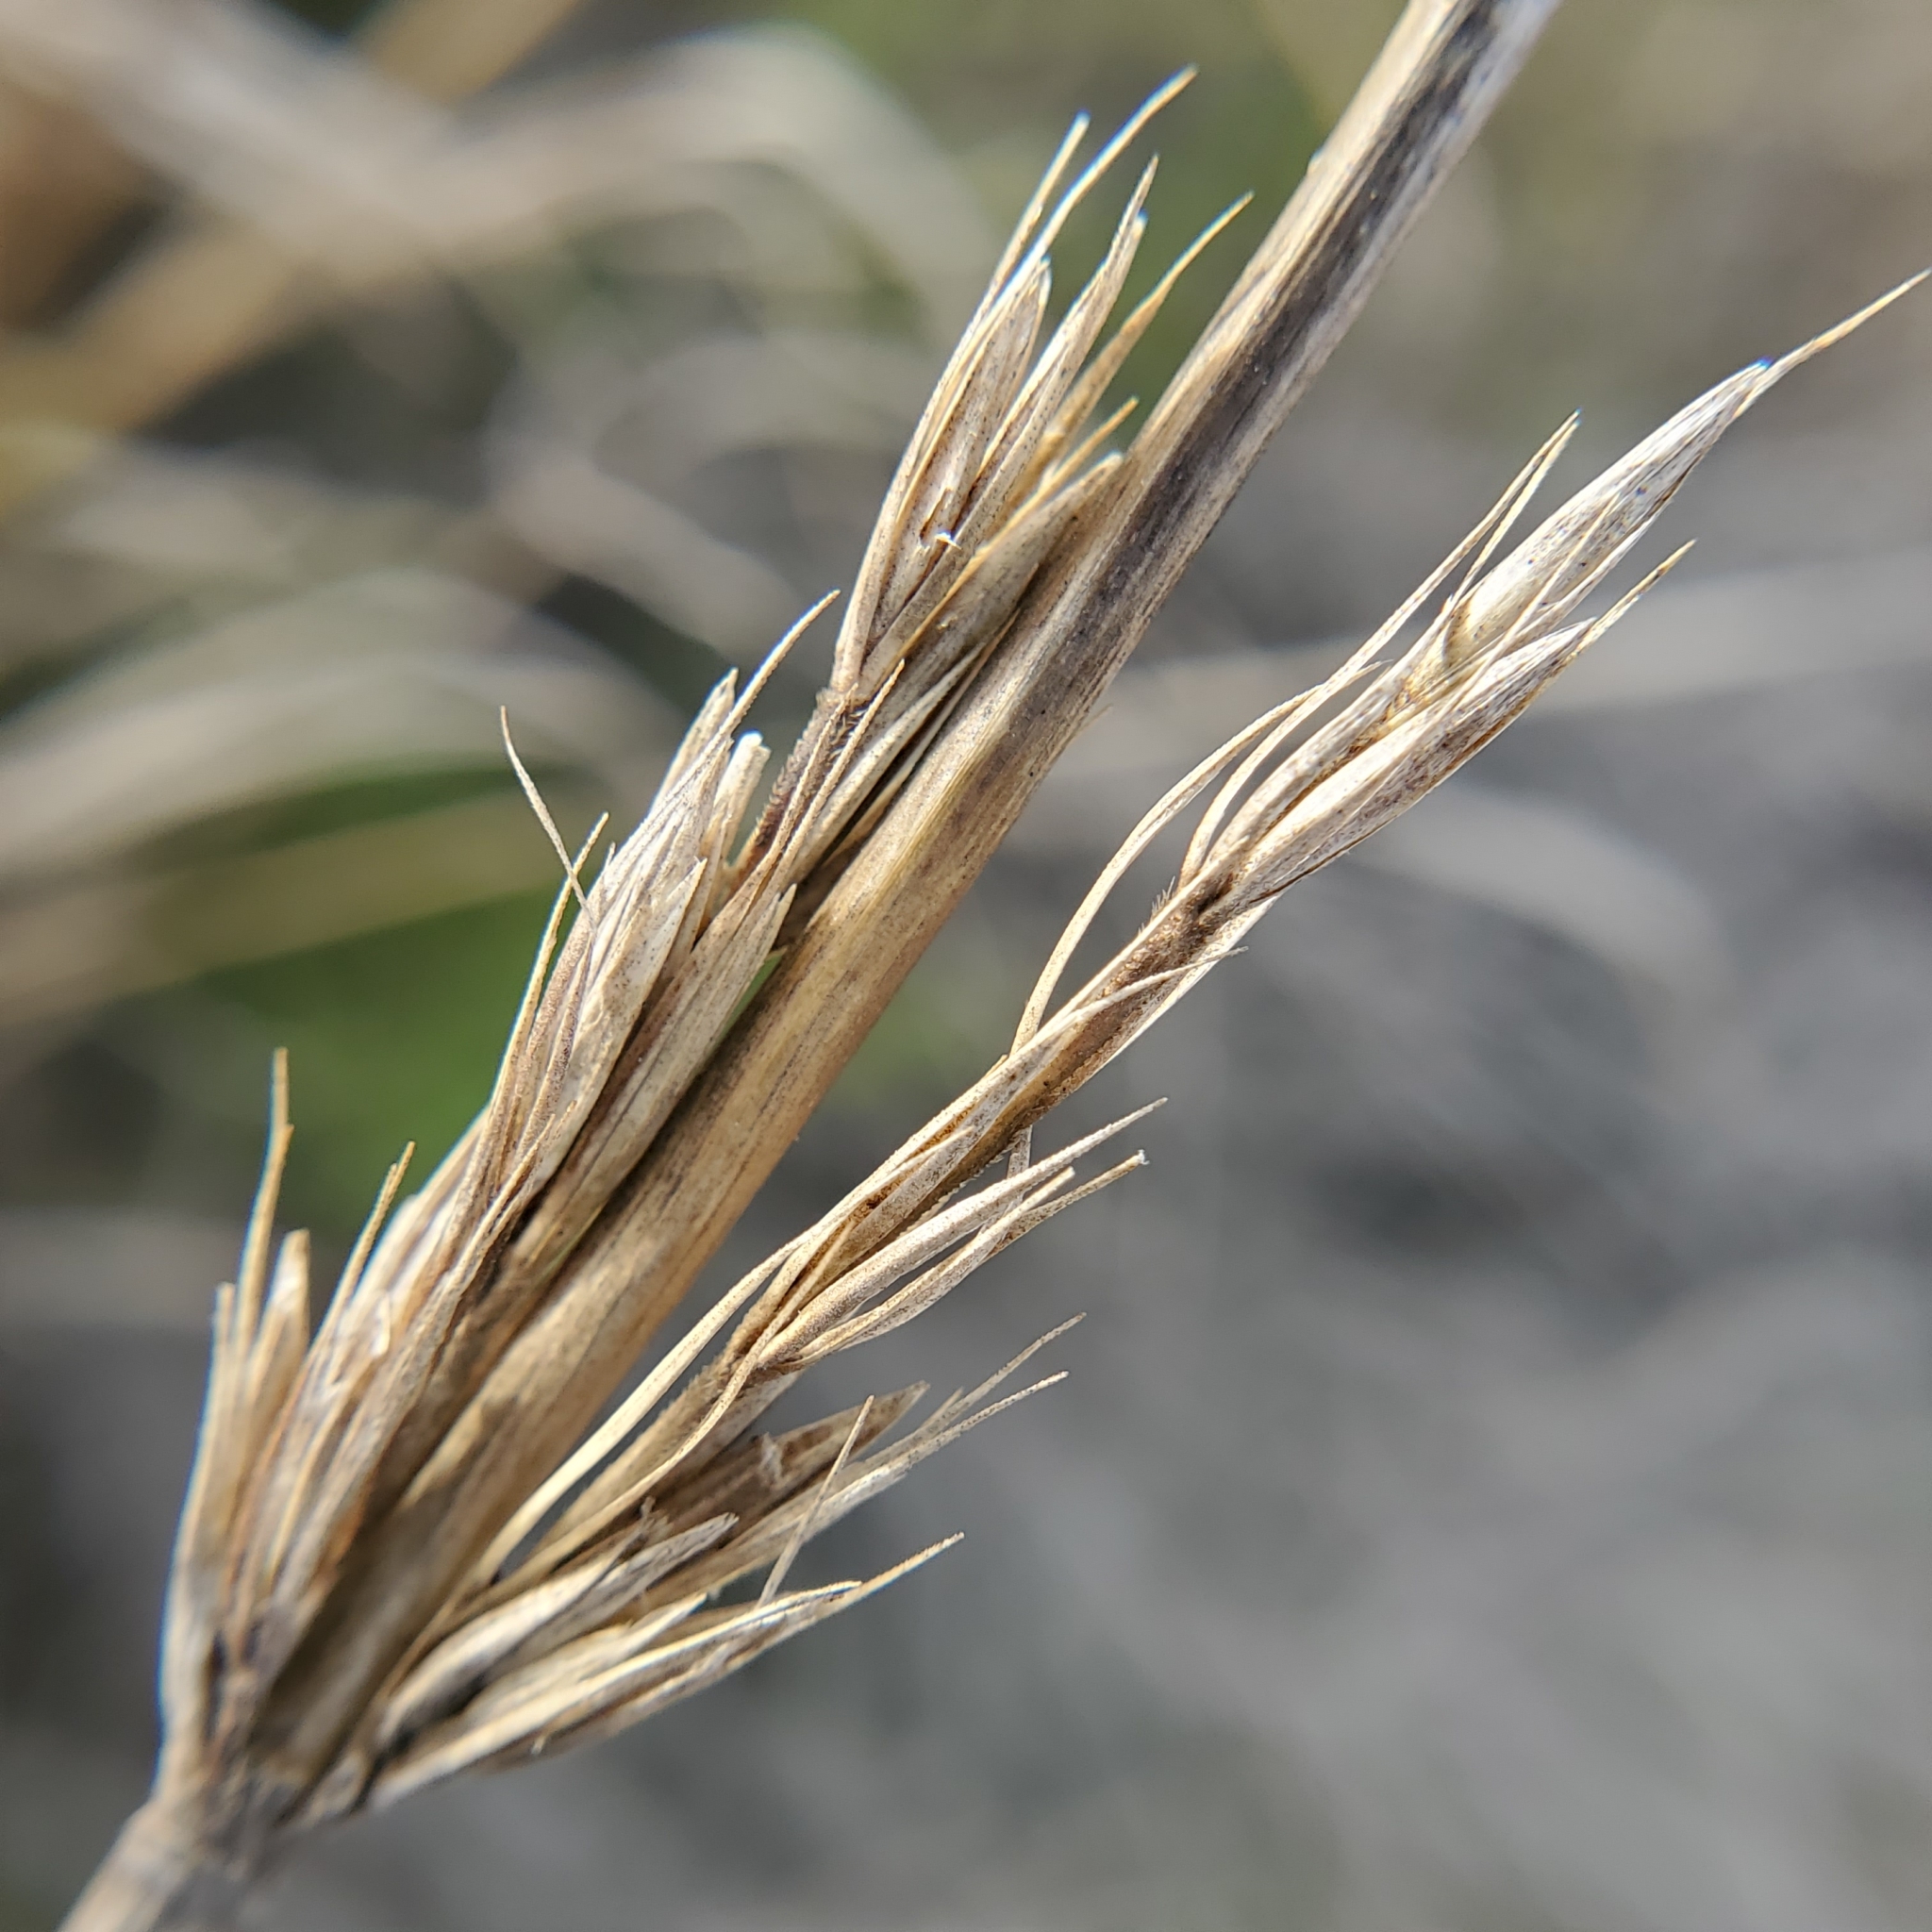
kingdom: Plantae
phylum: Tracheophyta
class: Liliopsida
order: Poales
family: Poaceae
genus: Leymus
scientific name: Leymus condensatus
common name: Giant wild rye
